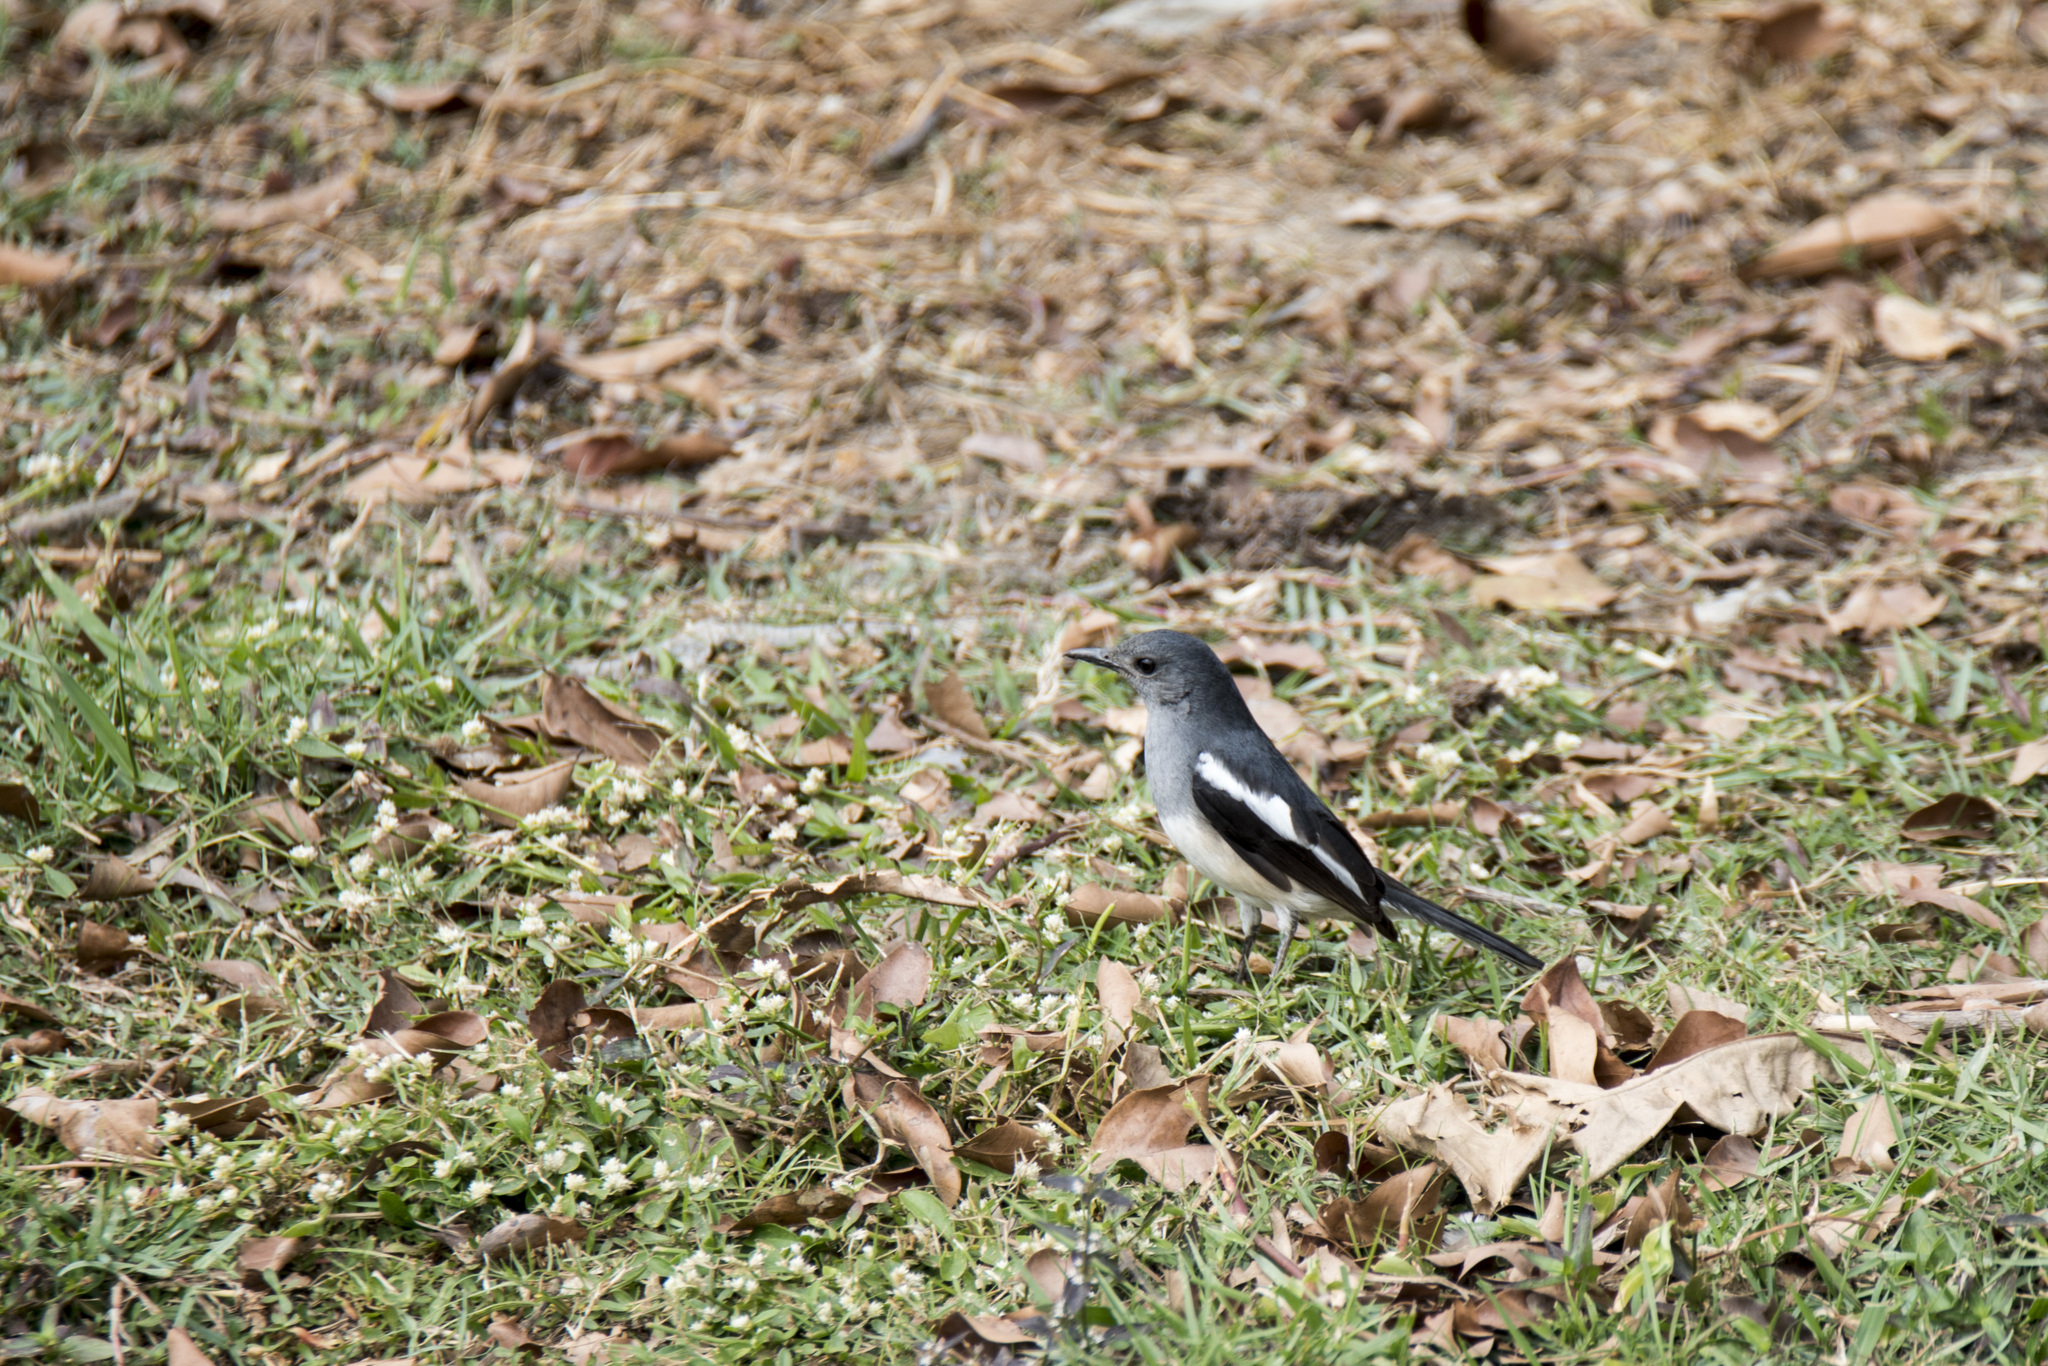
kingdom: Animalia
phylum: Chordata
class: Aves
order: Passeriformes
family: Muscicapidae
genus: Copsychus
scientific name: Copsychus saularis
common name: Oriental magpie-robin
